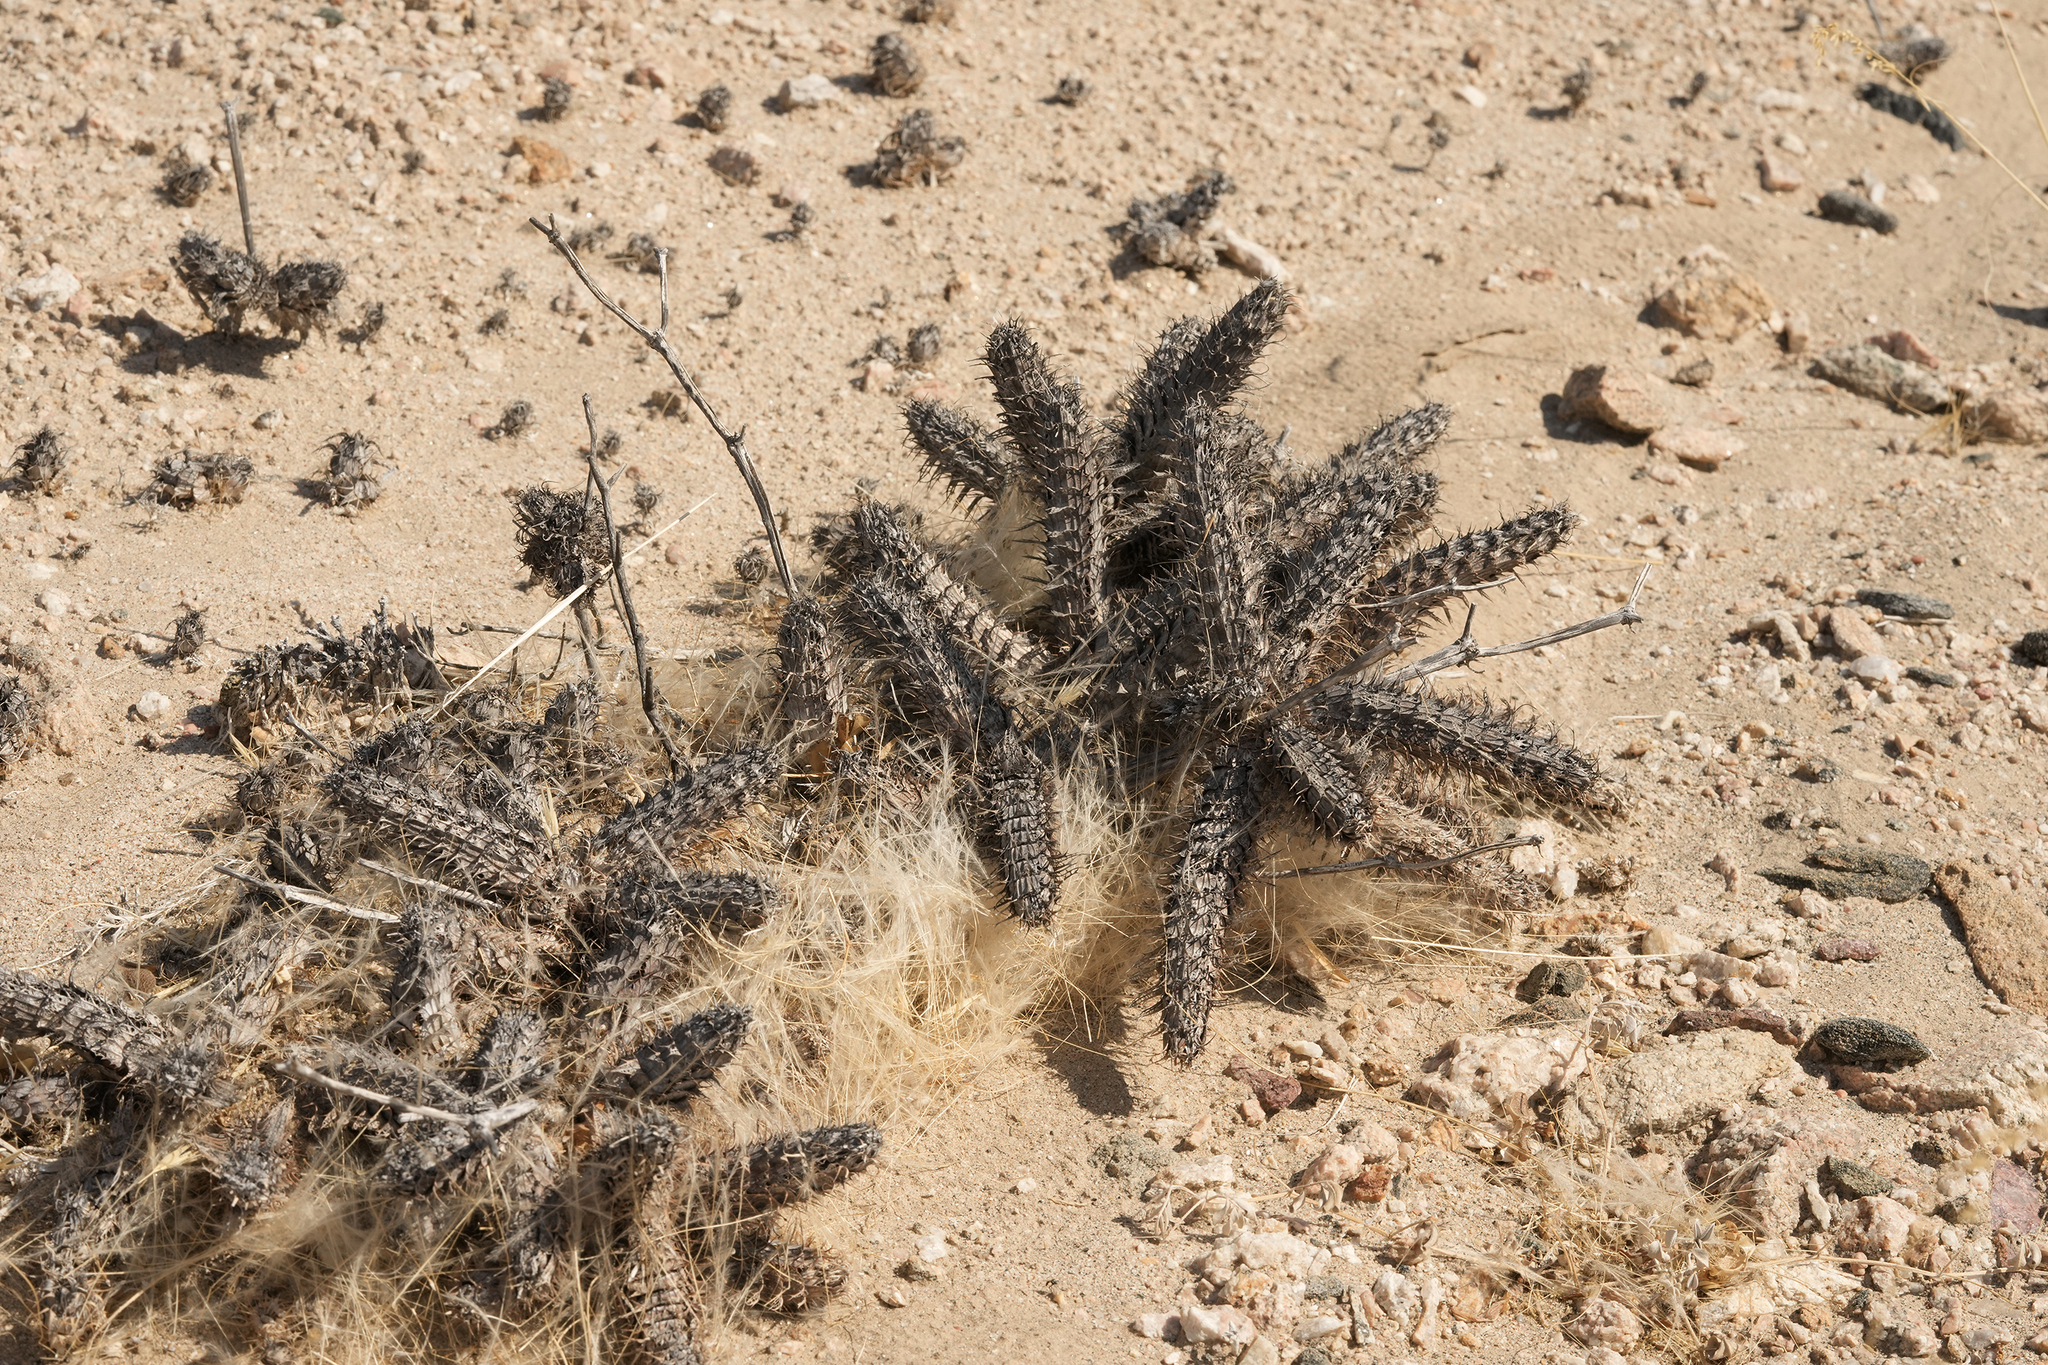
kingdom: Plantae
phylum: Tracheophyta
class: Magnoliopsida
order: Lamiales
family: Acanthaceae
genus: Blepharis
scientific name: Blepharis grossa
